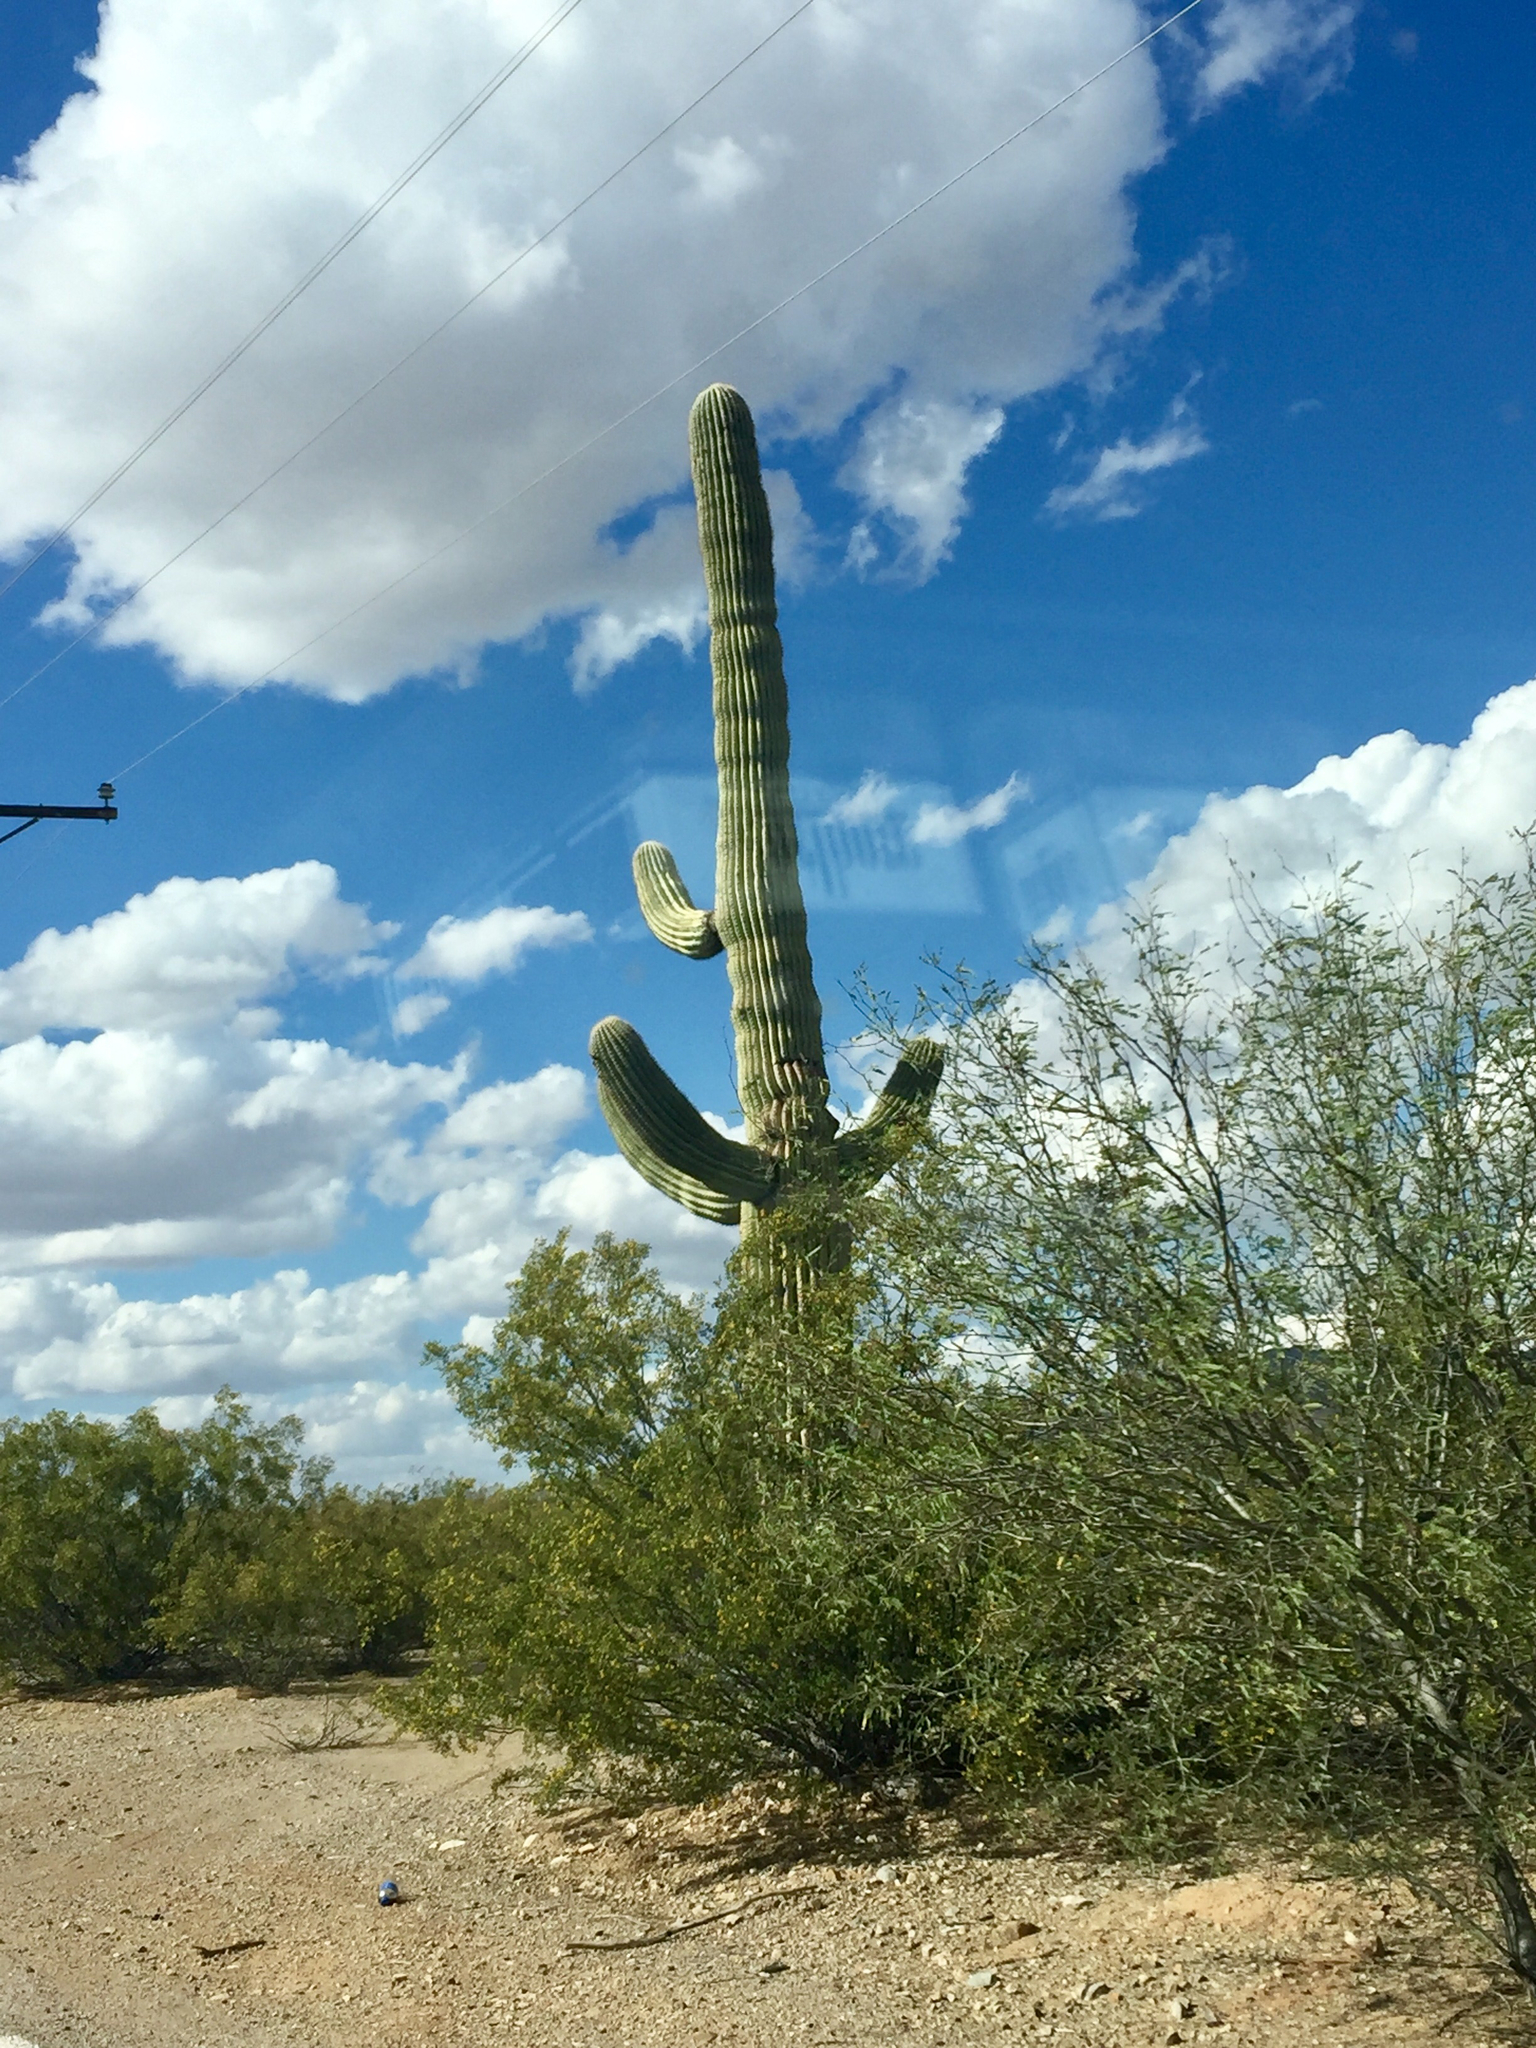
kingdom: Plantae
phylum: Tracheophyta
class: Magnoliopsida
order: Caryophyllales
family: Cactaceae
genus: Carnegiea
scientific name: Carnegiea gigantea
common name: Saguaro
